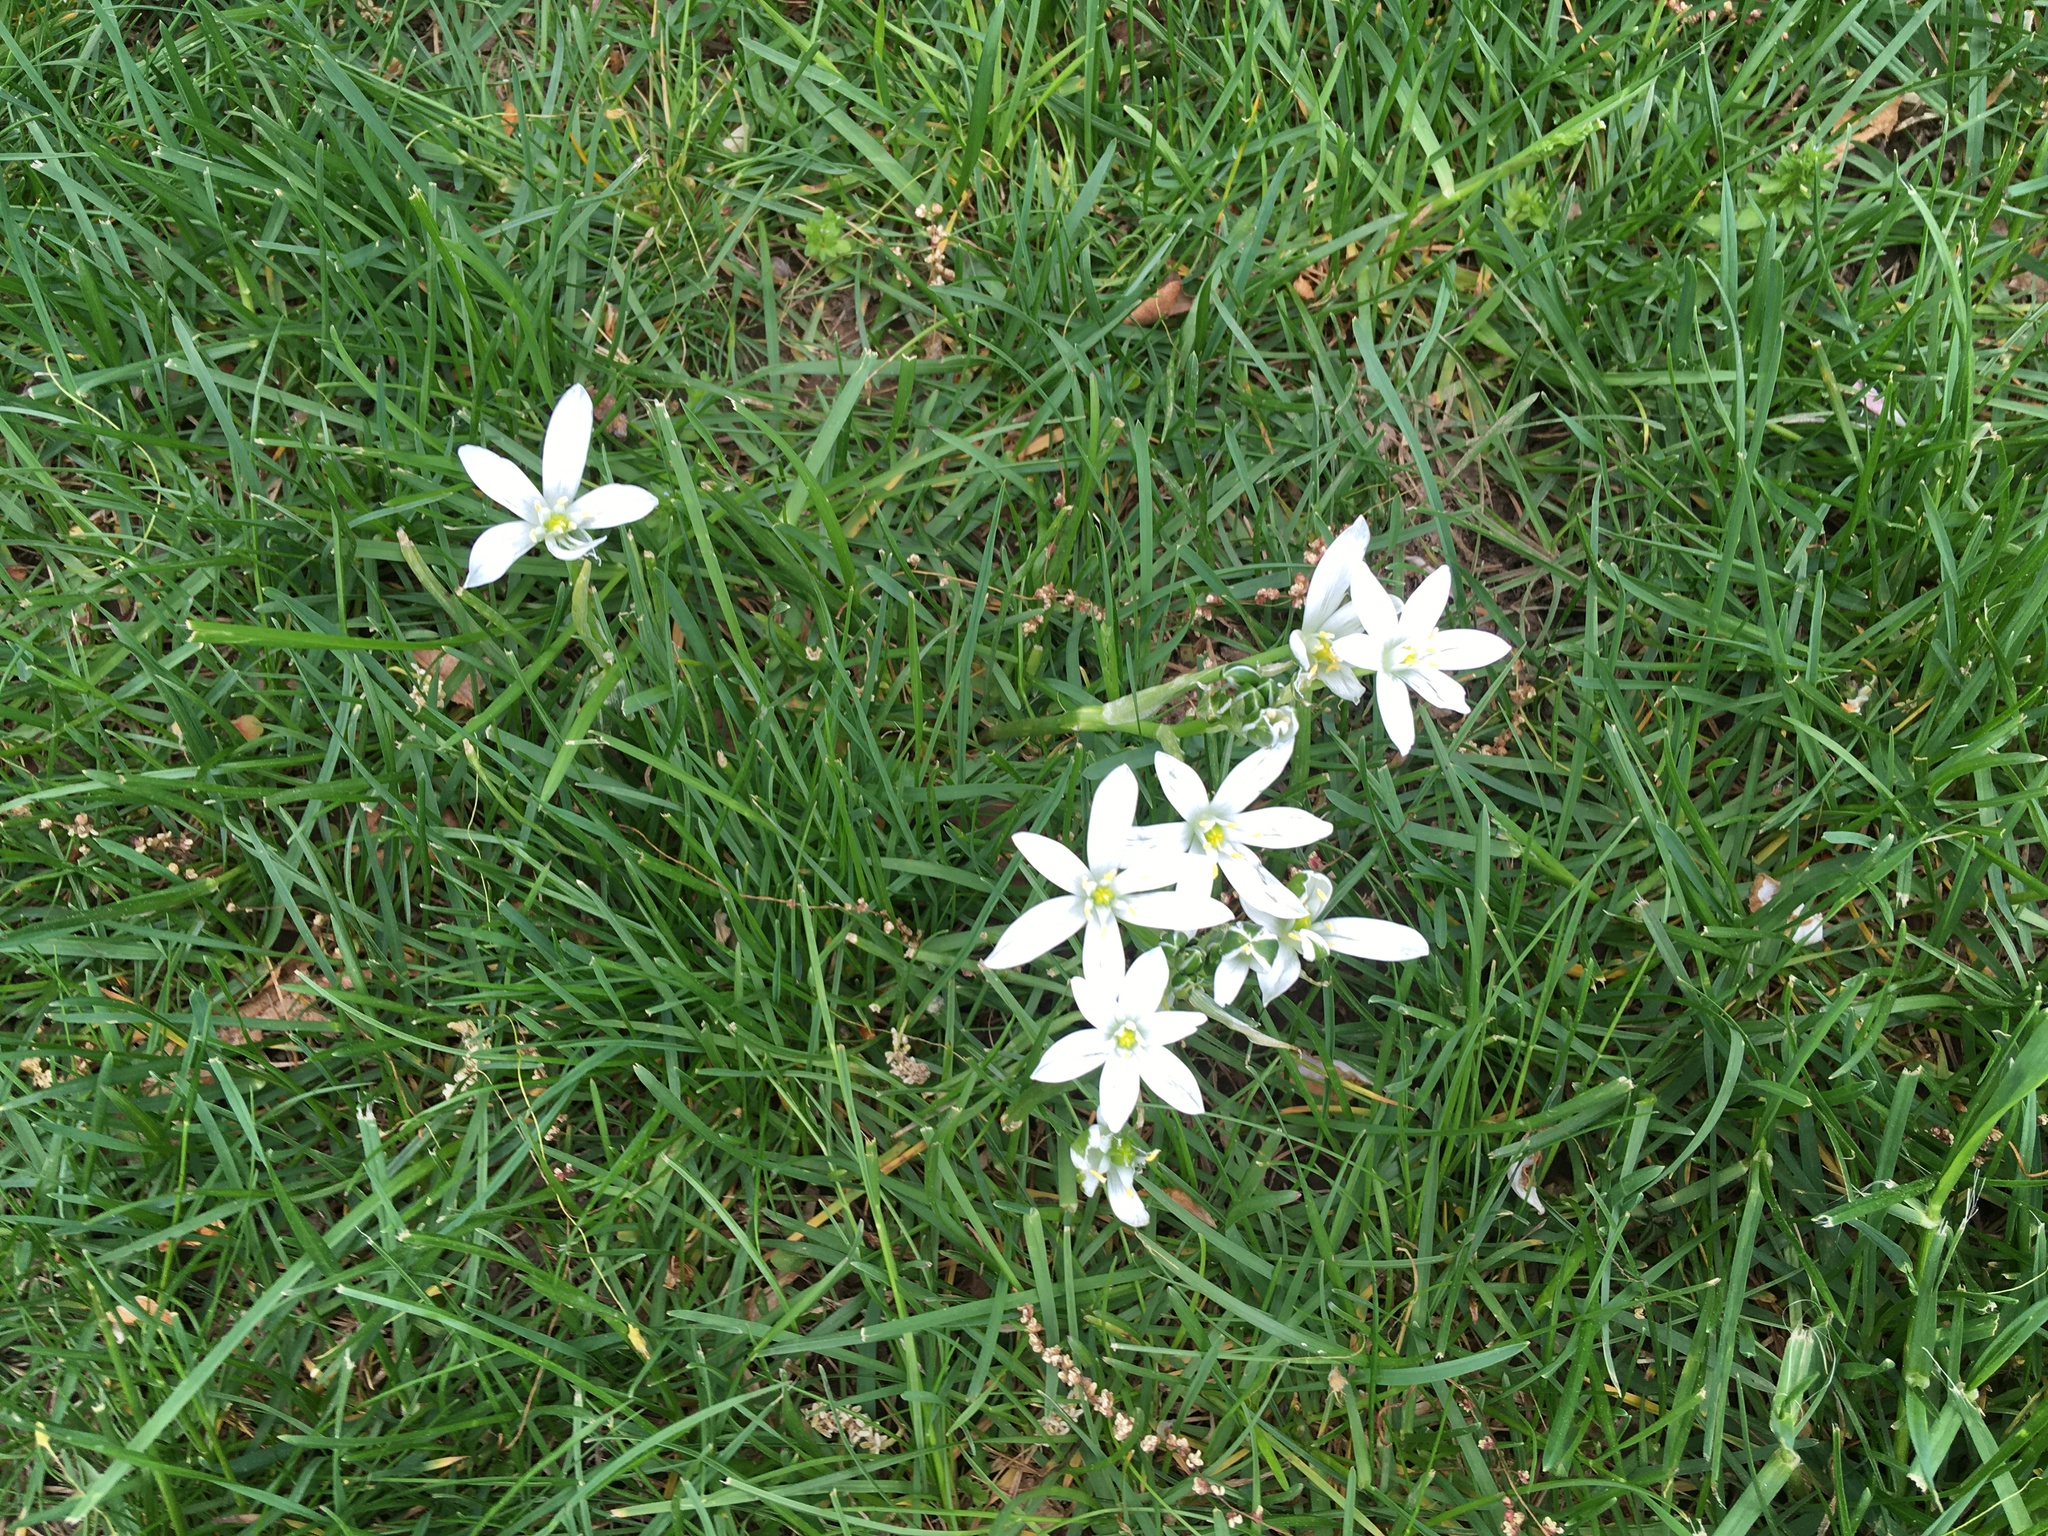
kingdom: Plantae
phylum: Tracheophyta
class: Liliopsida
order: Asparagales
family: Asparagaceae
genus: Ornithogalum
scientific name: Ornithogalum umbellatum
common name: Garden star-of-bethlehem
